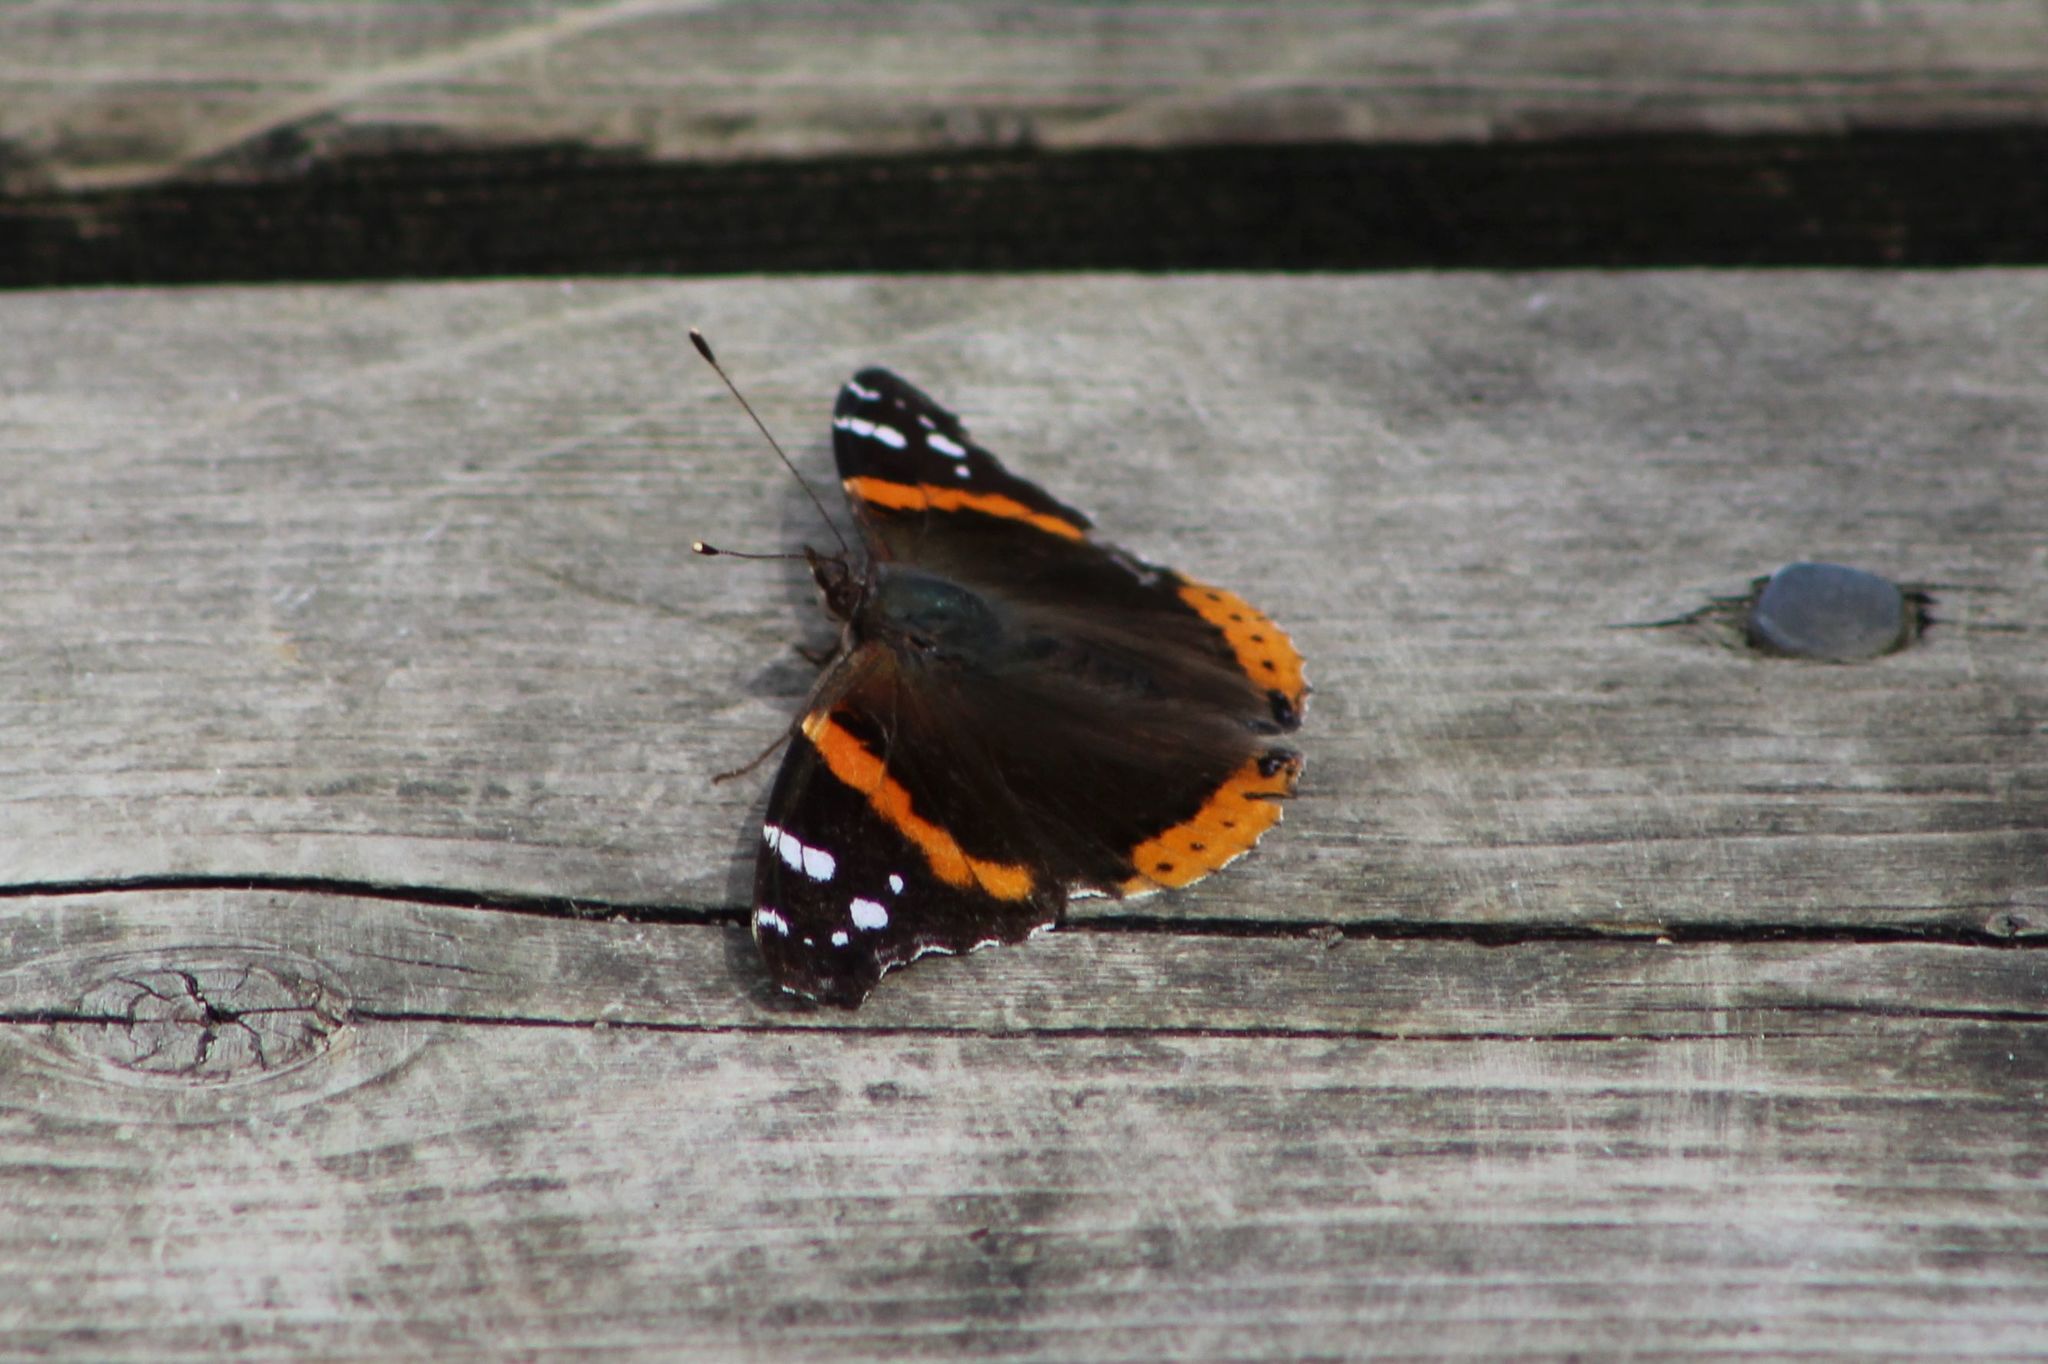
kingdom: Animalia
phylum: Arthropoda
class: Insecta
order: Lepidoptera
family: Nymphalidae
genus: Vanessa
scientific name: Vanessa atalanta
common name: Red admiral
